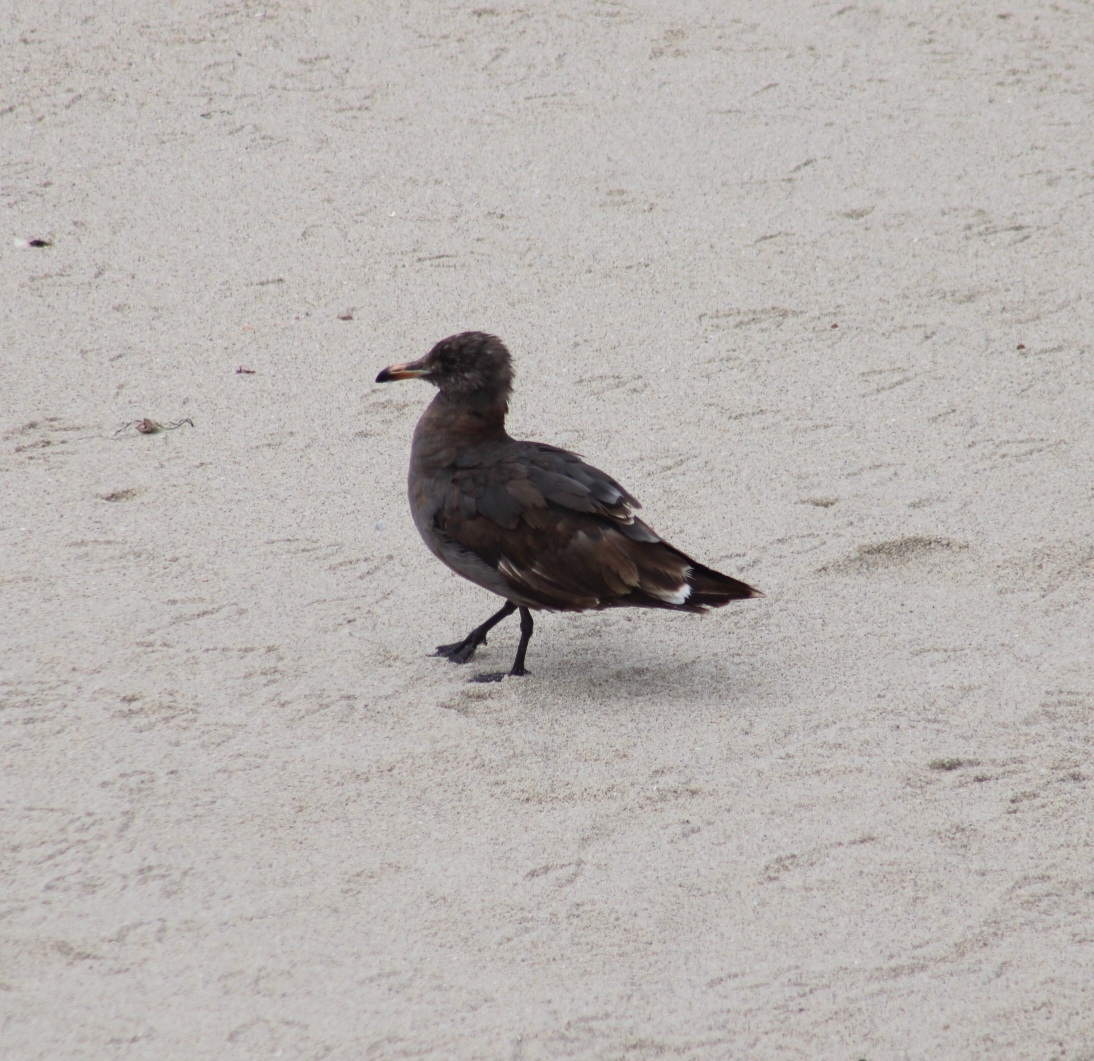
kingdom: Animalia
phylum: Chordata
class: Aves
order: Charadriiformes
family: Laridae
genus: Larus
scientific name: Larus heermanni
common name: Heermann's gull
